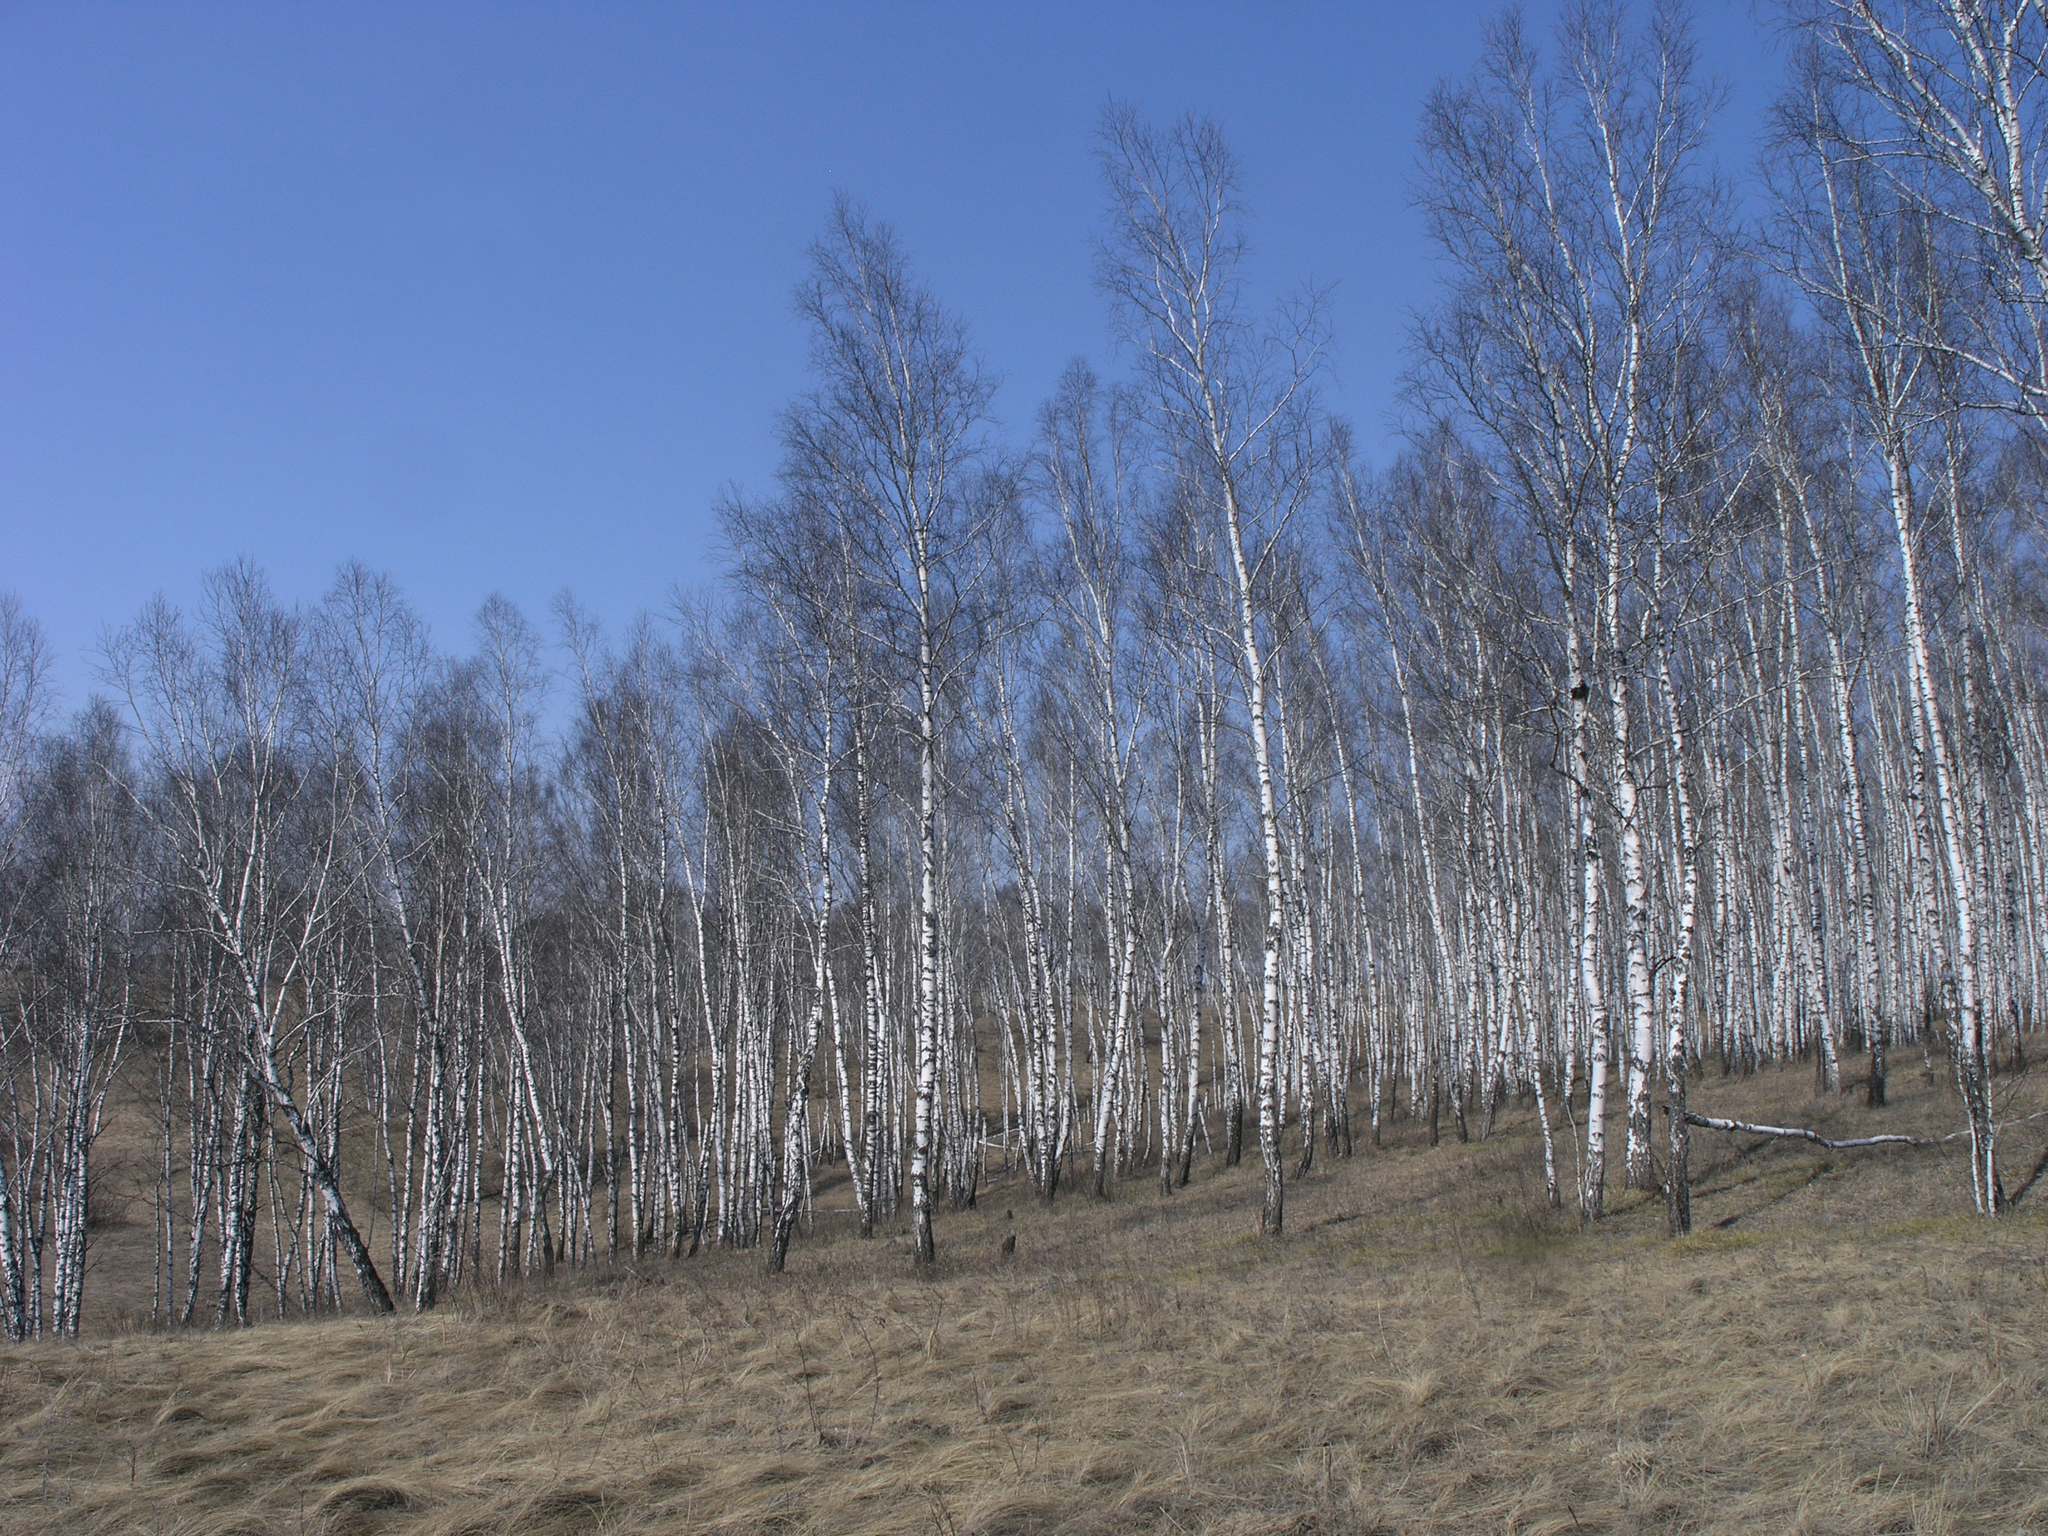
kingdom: Plantae
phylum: Tracheophyta
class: Magnoliopsida
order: Fagales
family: Betulaceae
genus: Betula
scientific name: Betula pendula
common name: Silver birch
